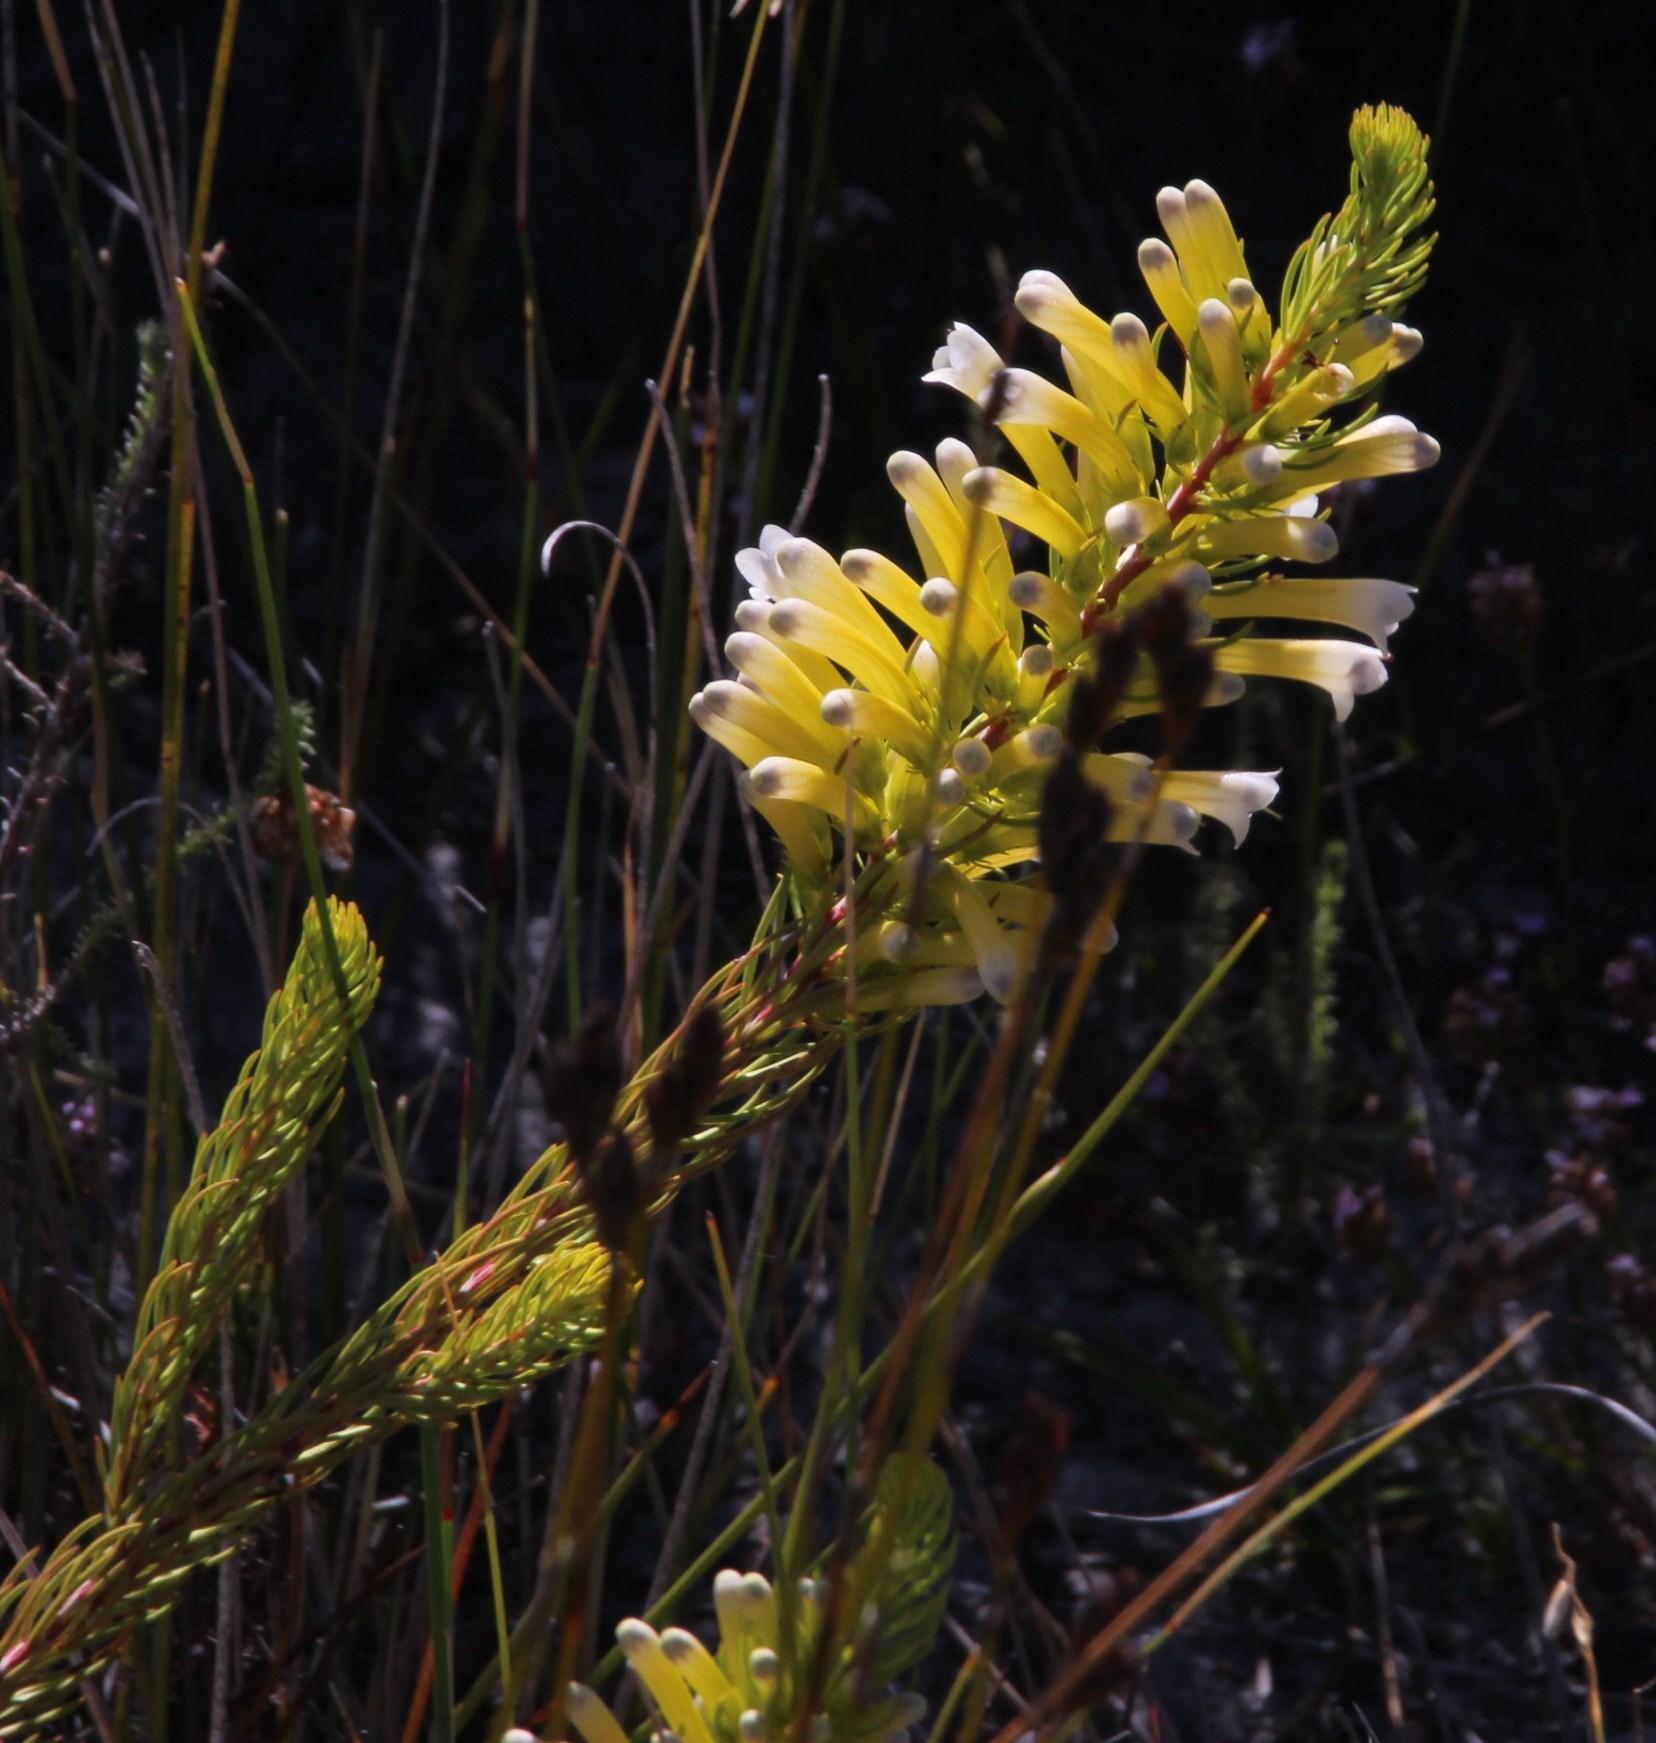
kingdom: Plantae
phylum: Tracheophyta
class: Magnoliopsida
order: Ericales
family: Ericaceae
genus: Erica
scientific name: Erica pinea
